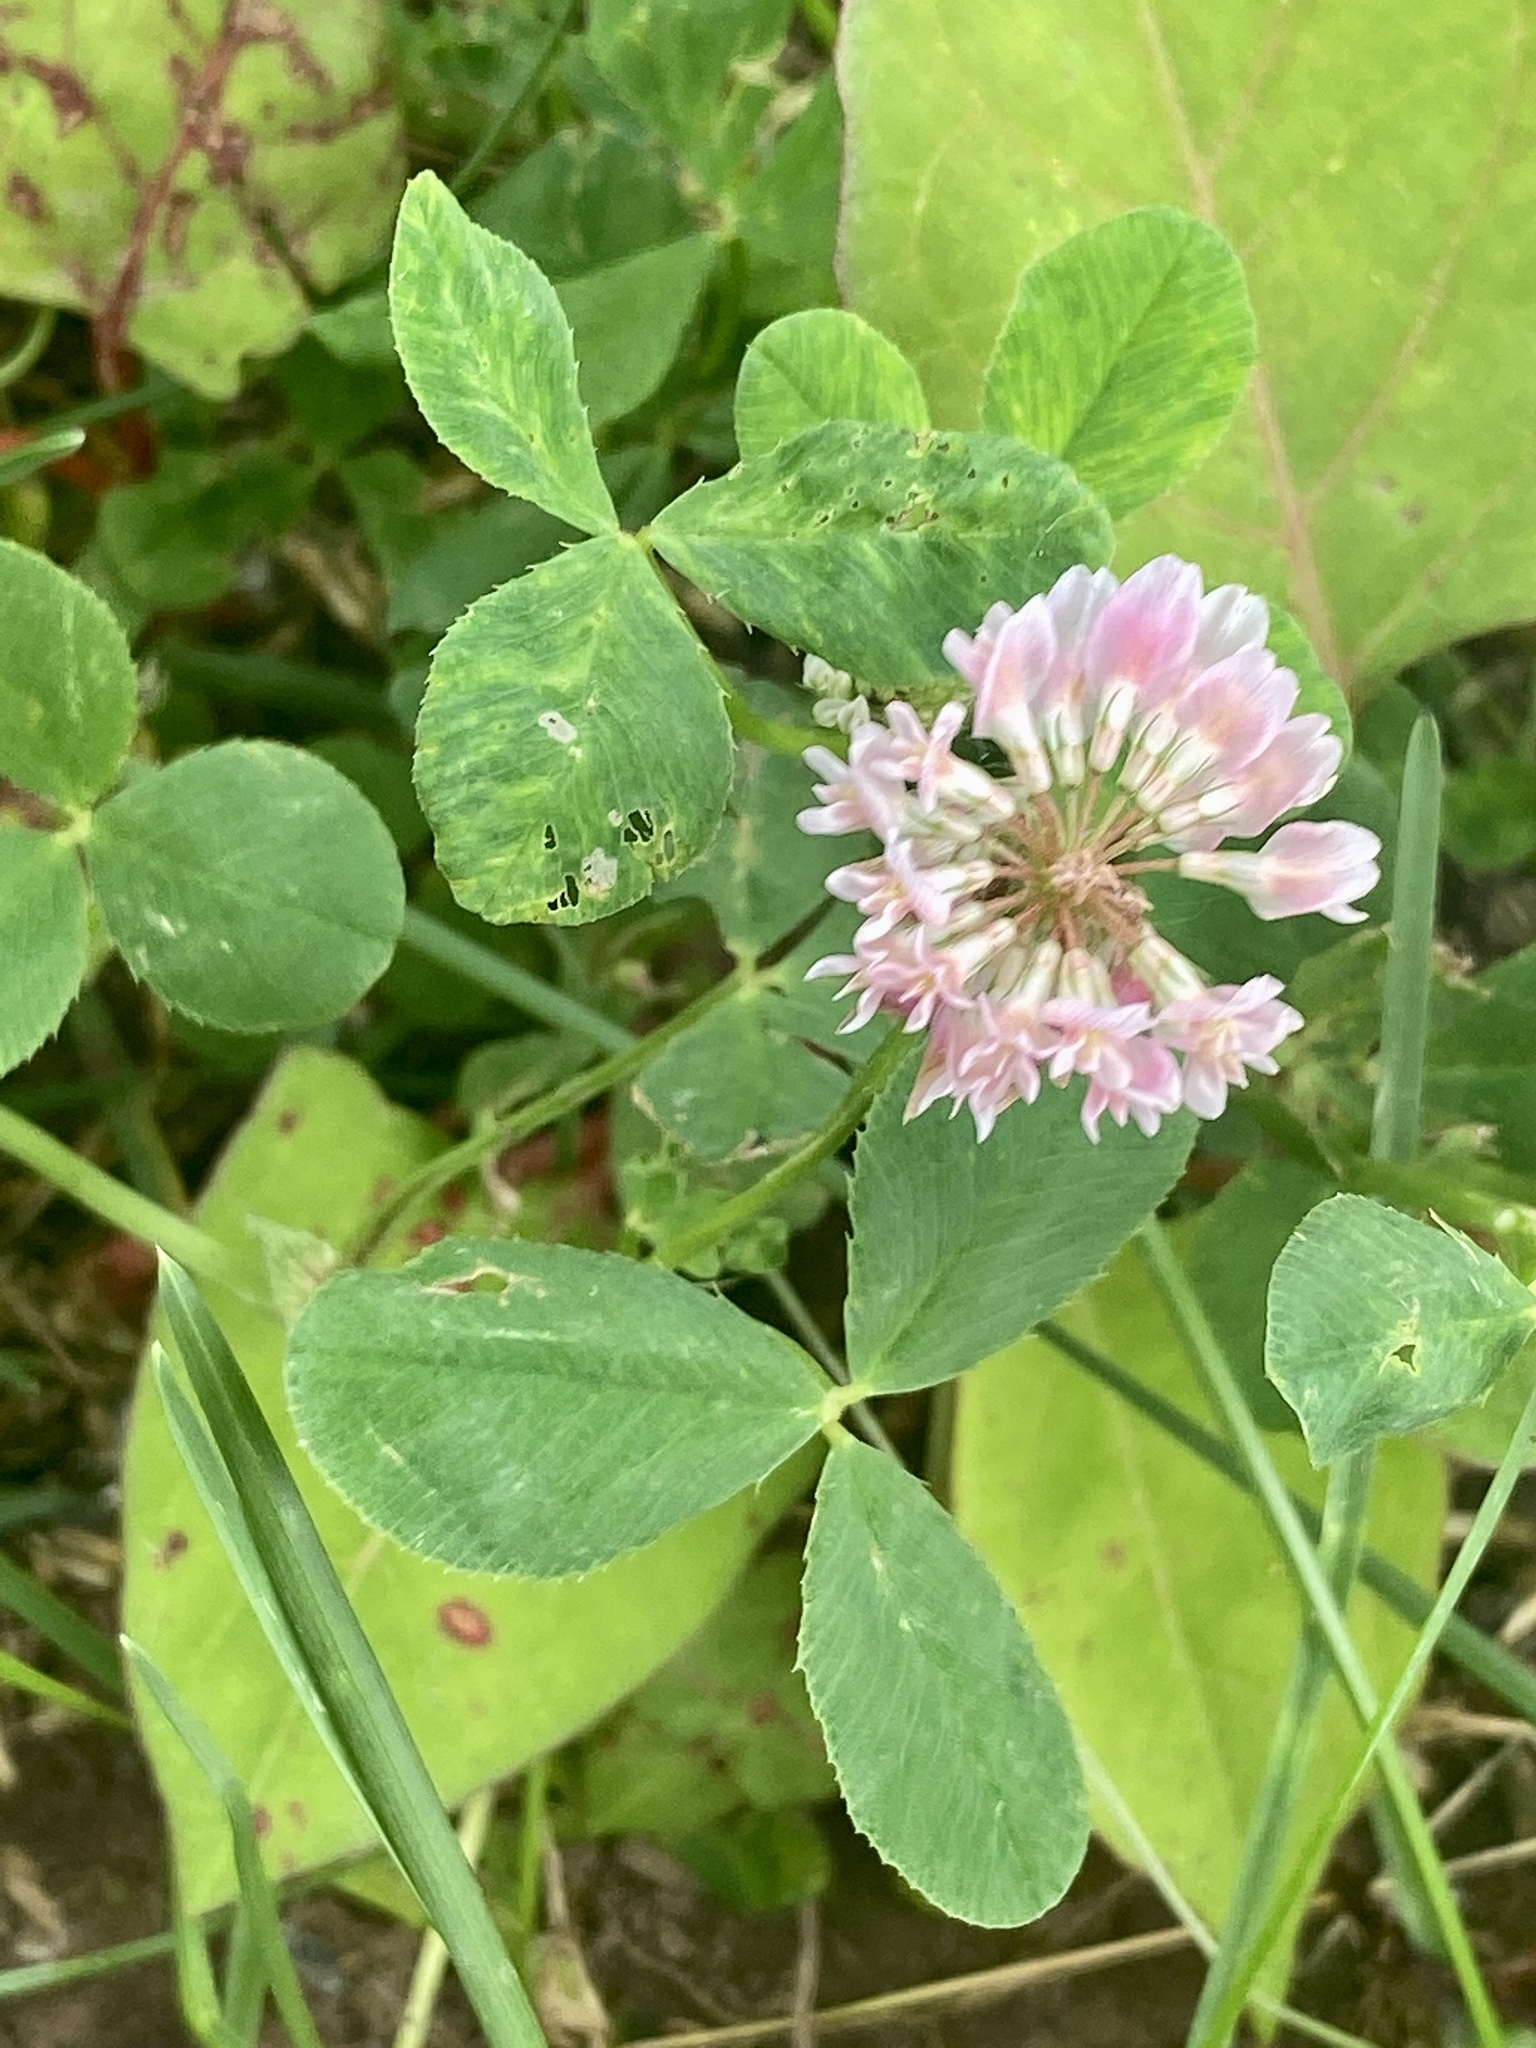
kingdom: Plantae
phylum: Tracheophyta
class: Magnoliopsida
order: Fabales
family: Fabaceae
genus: Trifolium
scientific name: Trifolium hybridum
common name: Alsike clover
